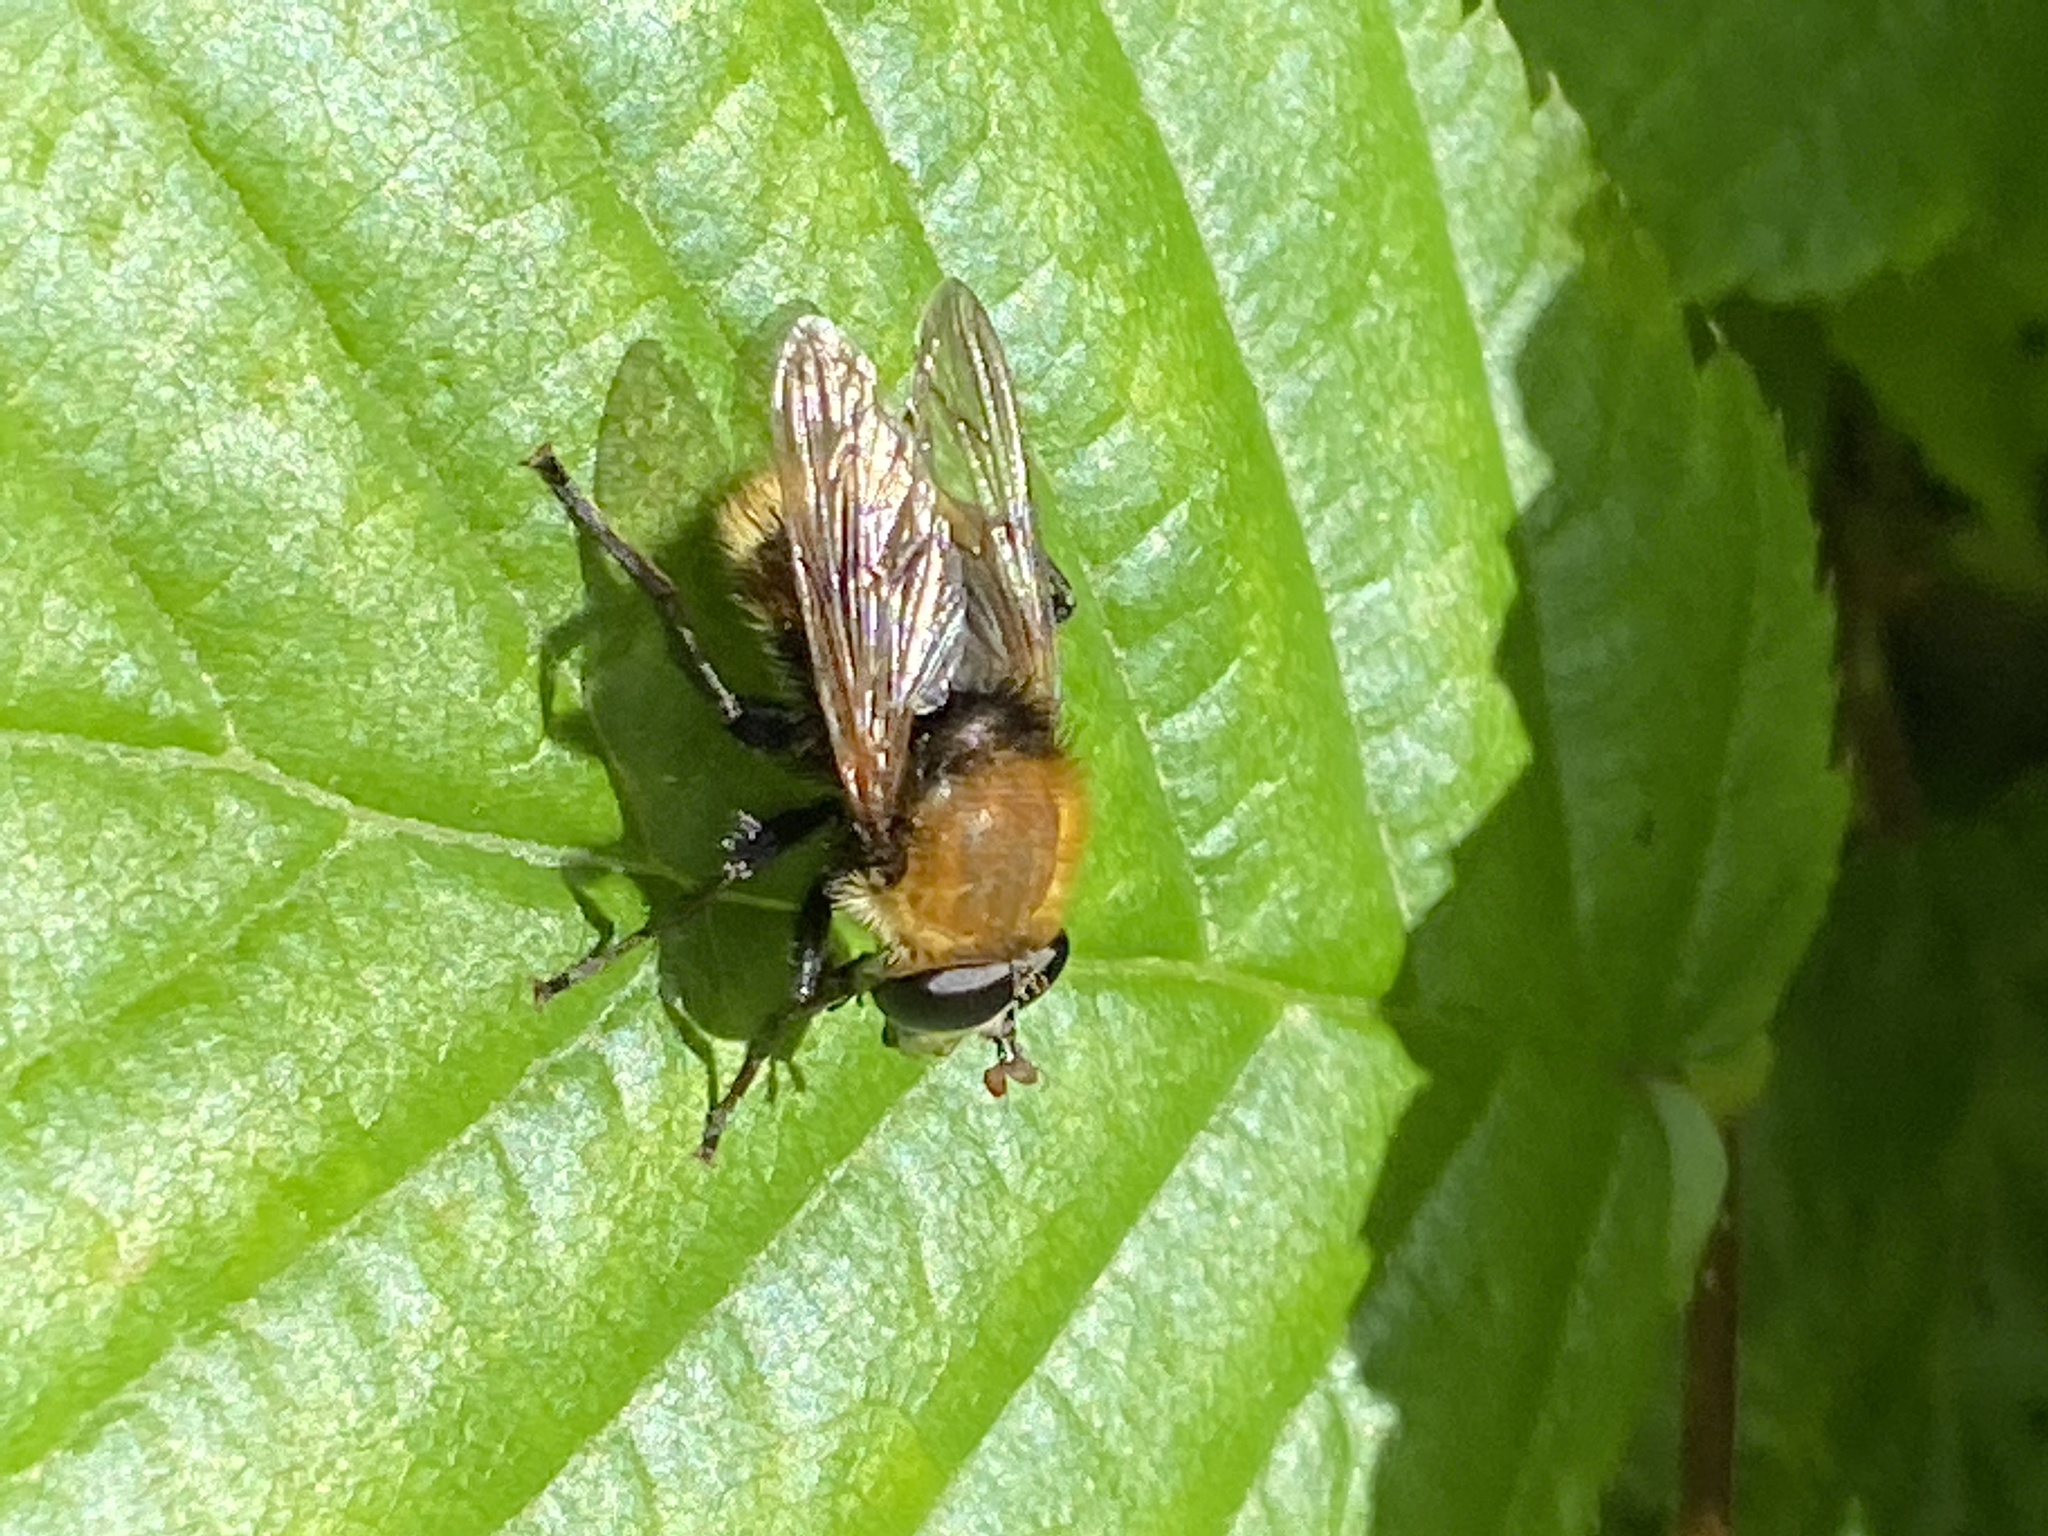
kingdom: Animalia
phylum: Arthropoda
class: Insecta
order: Diptera
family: Syrphidae
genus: Criorhina
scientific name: Criorhina berberina
